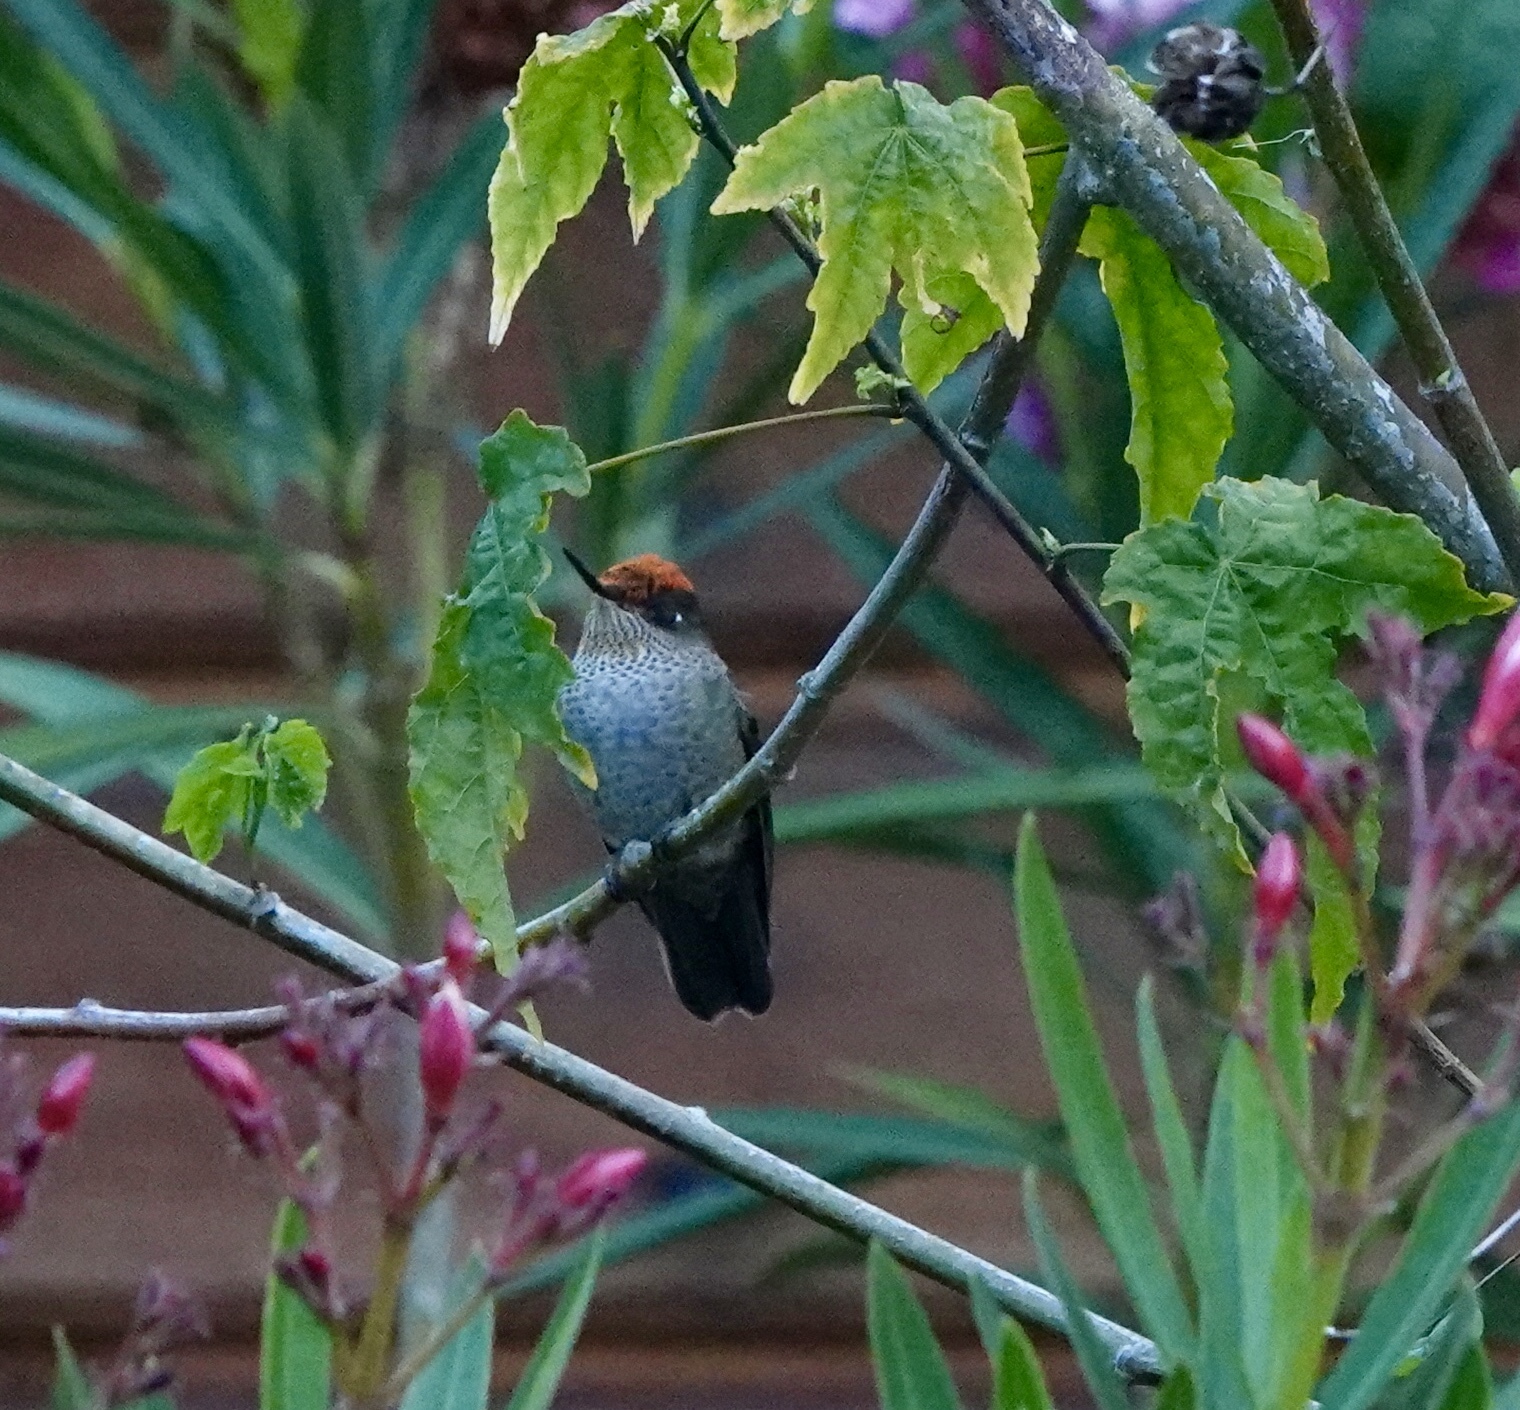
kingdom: Animalia
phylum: Chordata
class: Aves
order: Apodiformes
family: Trochilidae
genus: Sephanoides
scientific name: Sephanoides sephaniodes
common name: Green-backed firecrown
